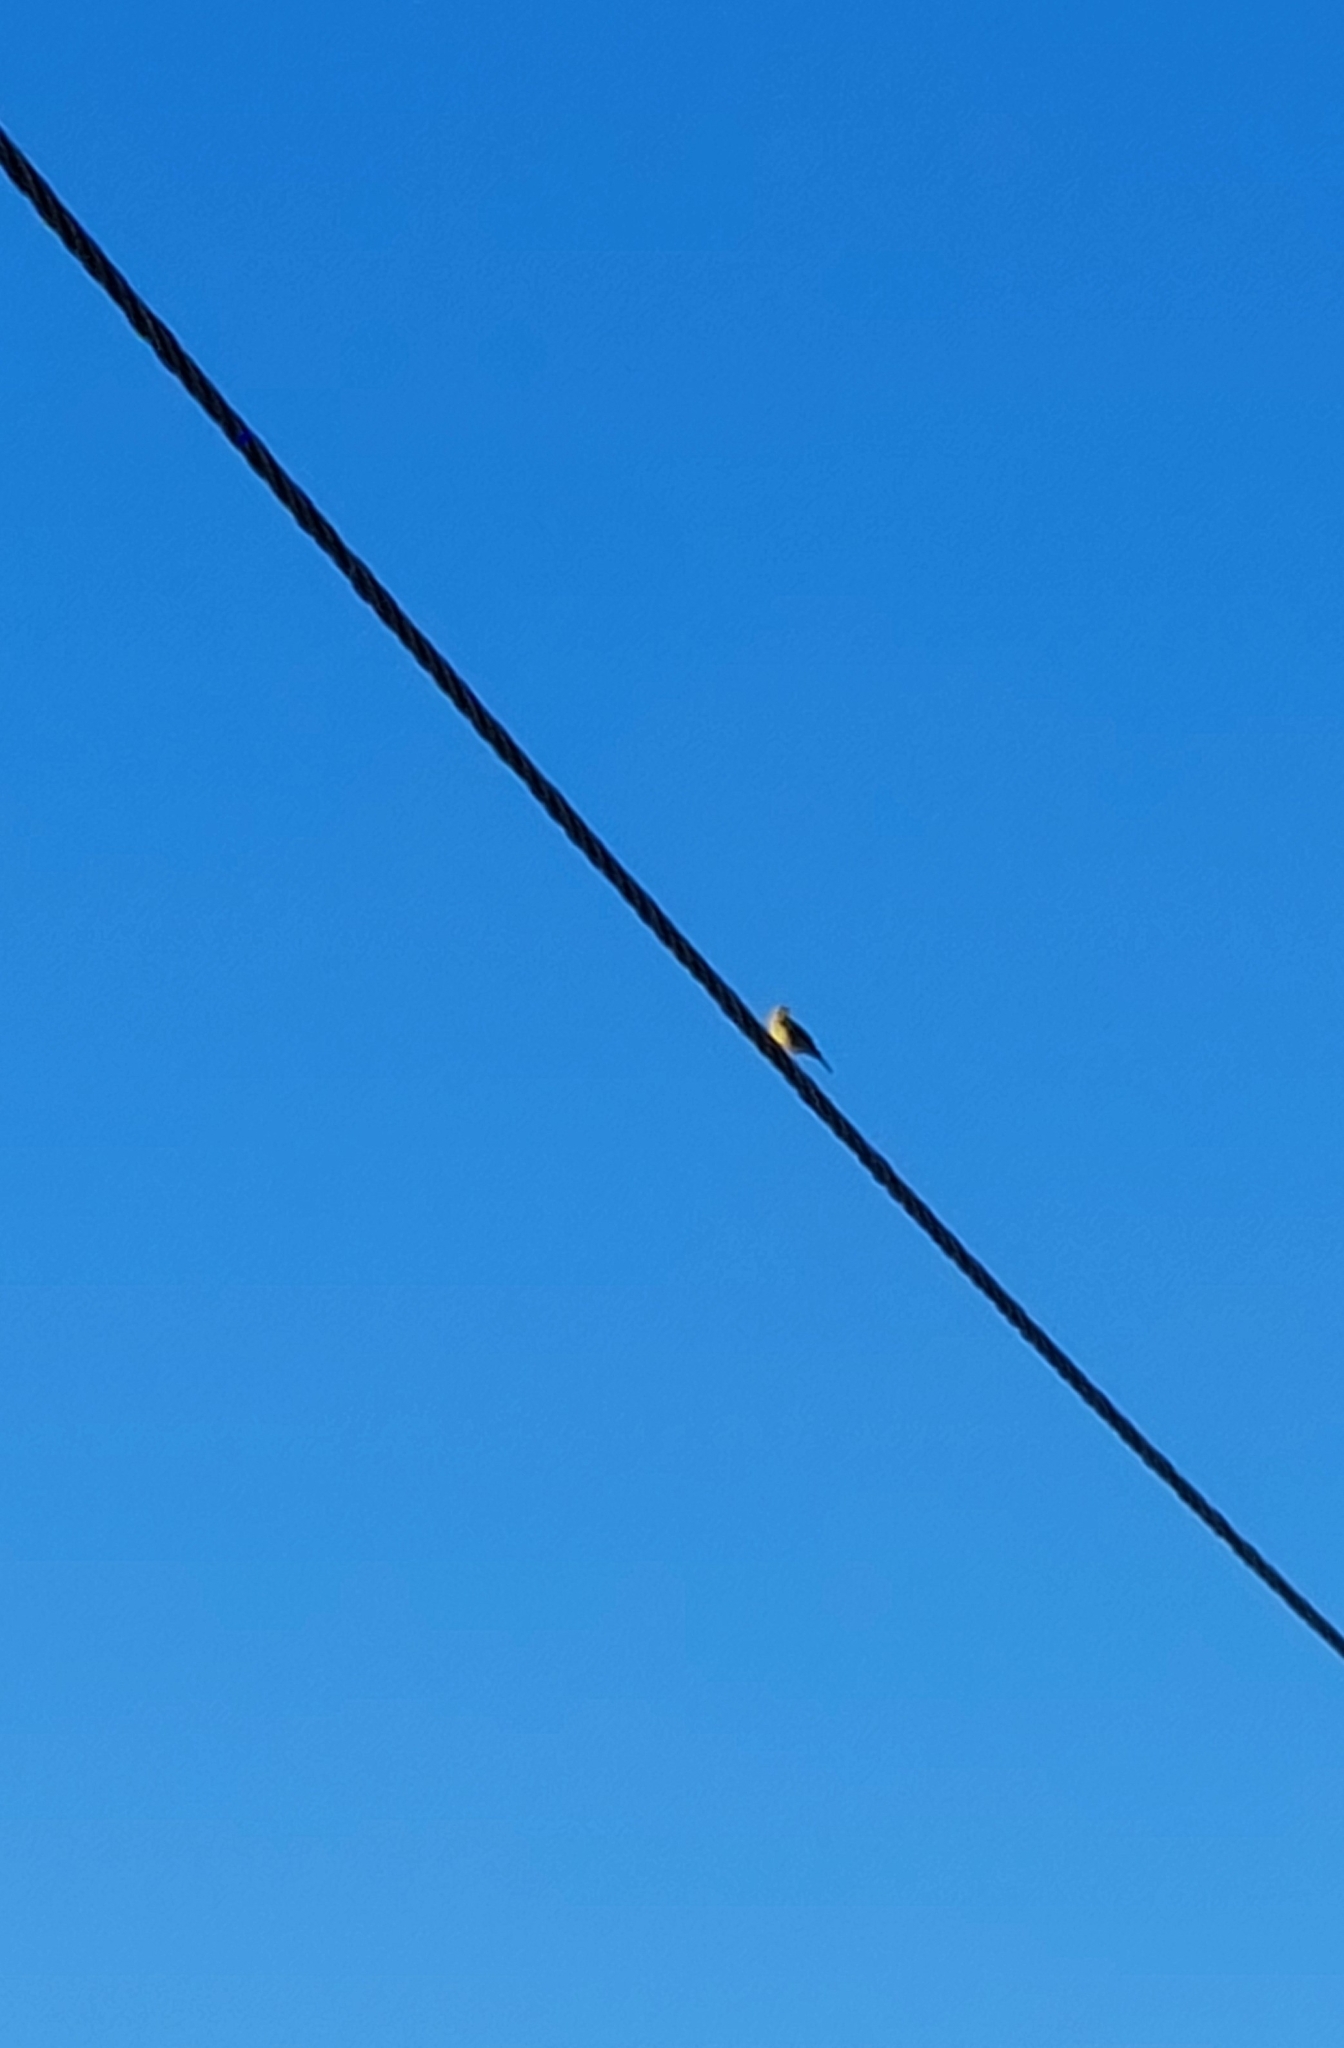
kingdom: Animalia
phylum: Chordata
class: Aves
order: Passeriformes
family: Thraupidae
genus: Sicalis
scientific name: Sicalis luteola
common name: Grassland yellow-finch
